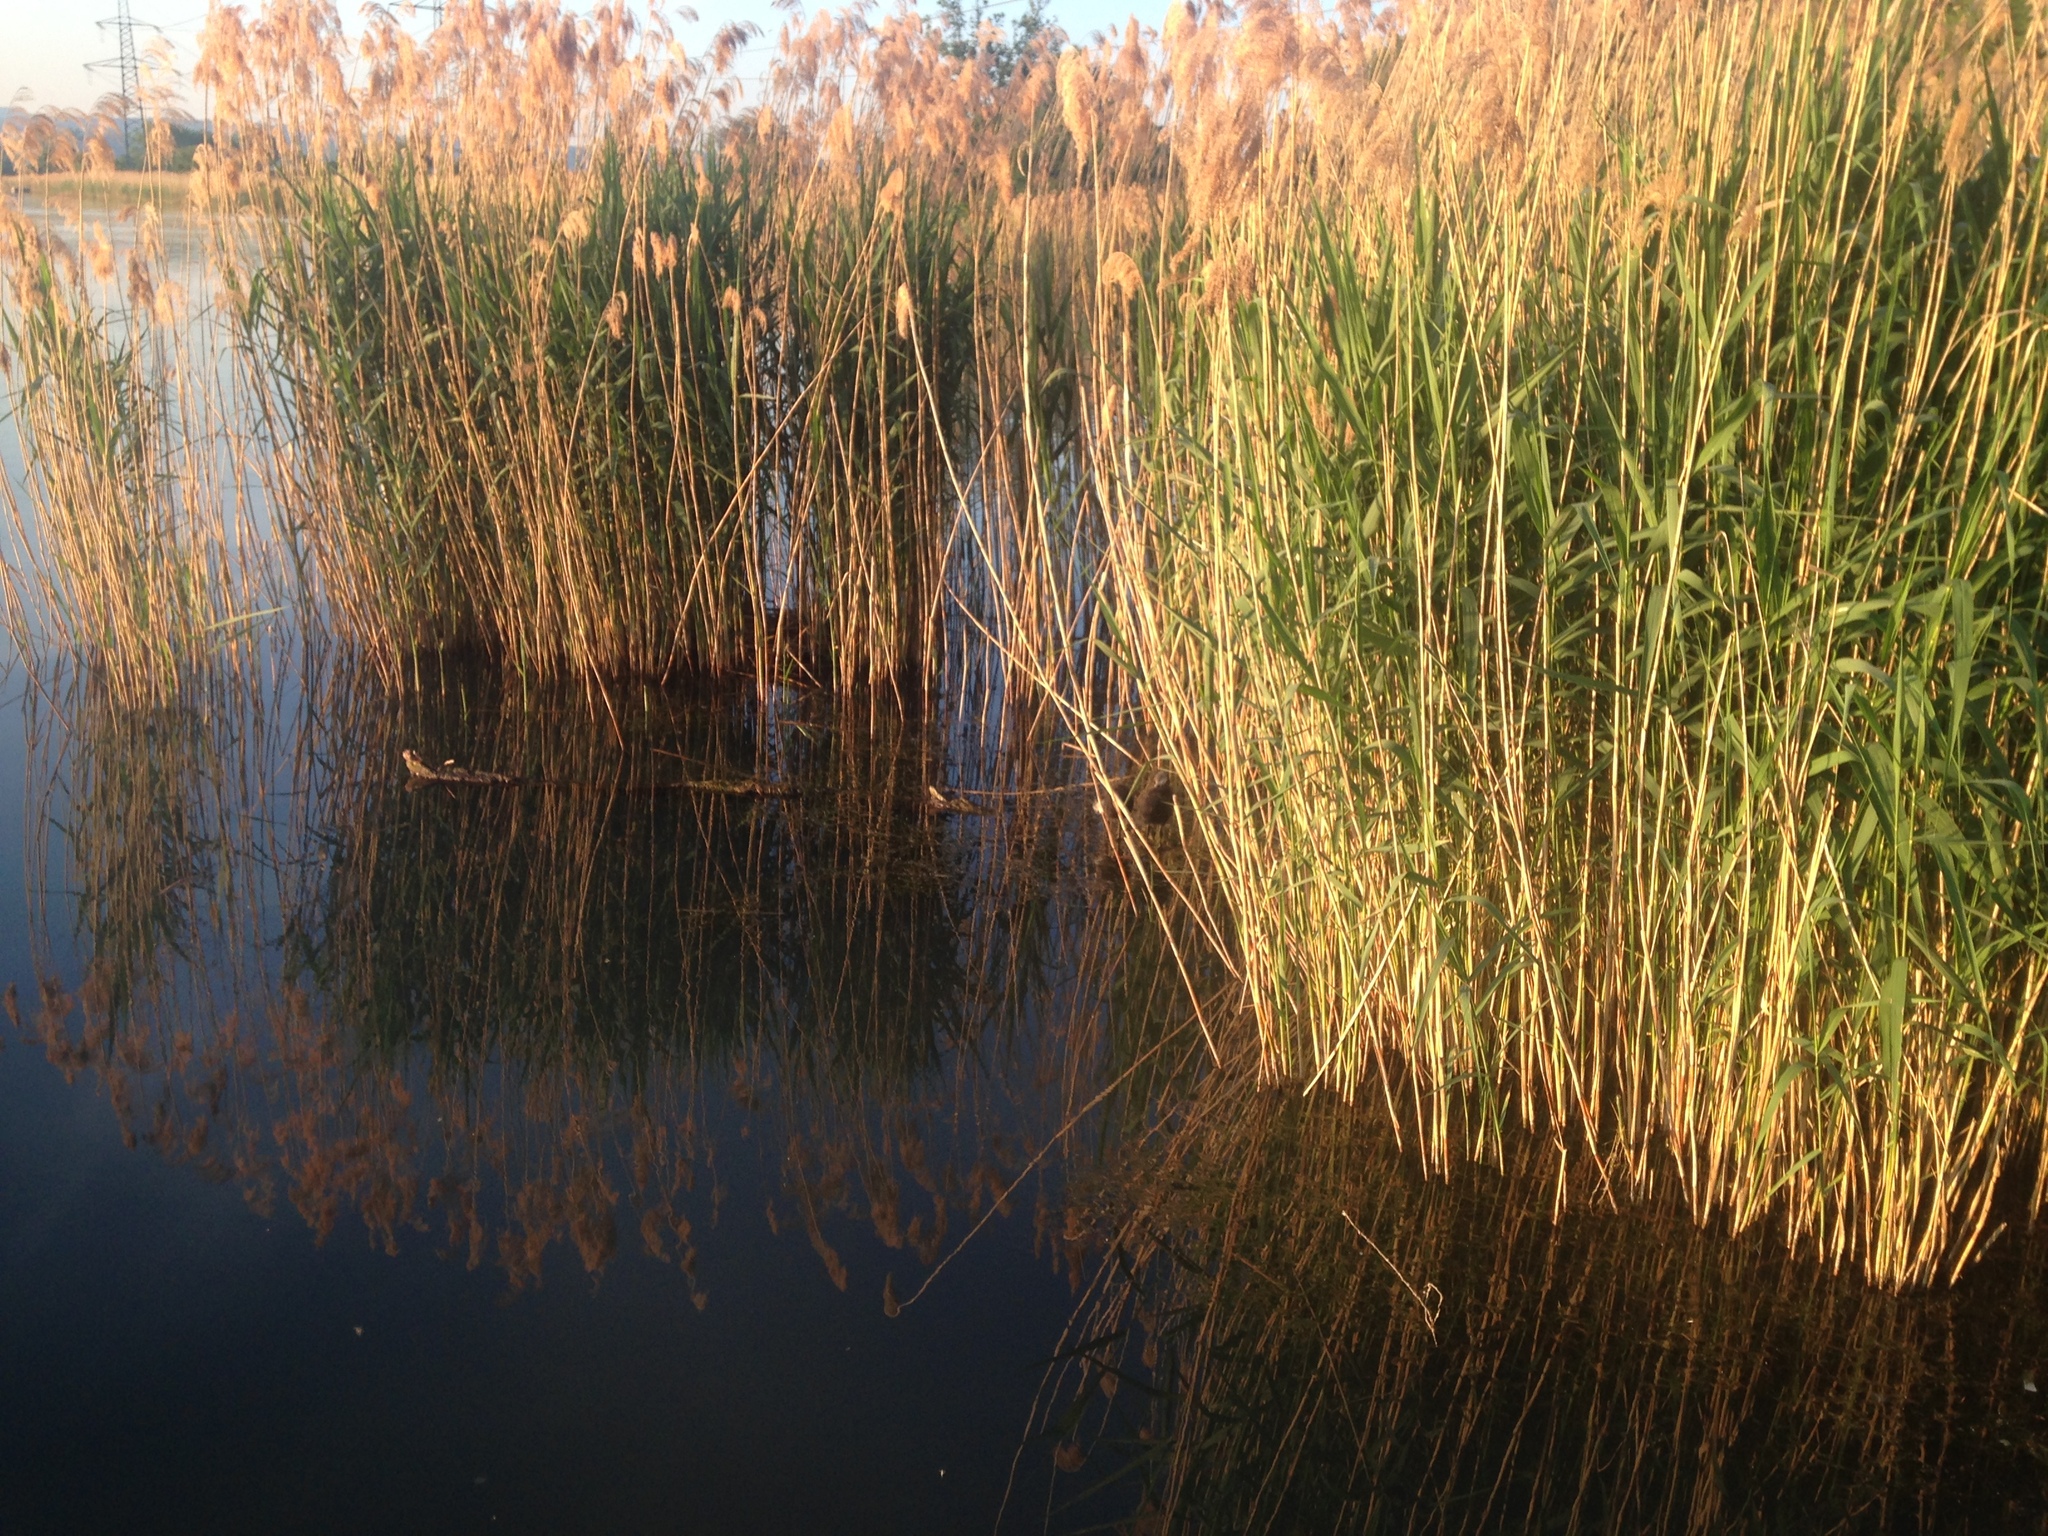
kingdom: Plantae
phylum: Tracheophyta
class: Liliopsida
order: Poales
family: Poaceae
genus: Phragmites
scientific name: Phragmites australis
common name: Common reed
